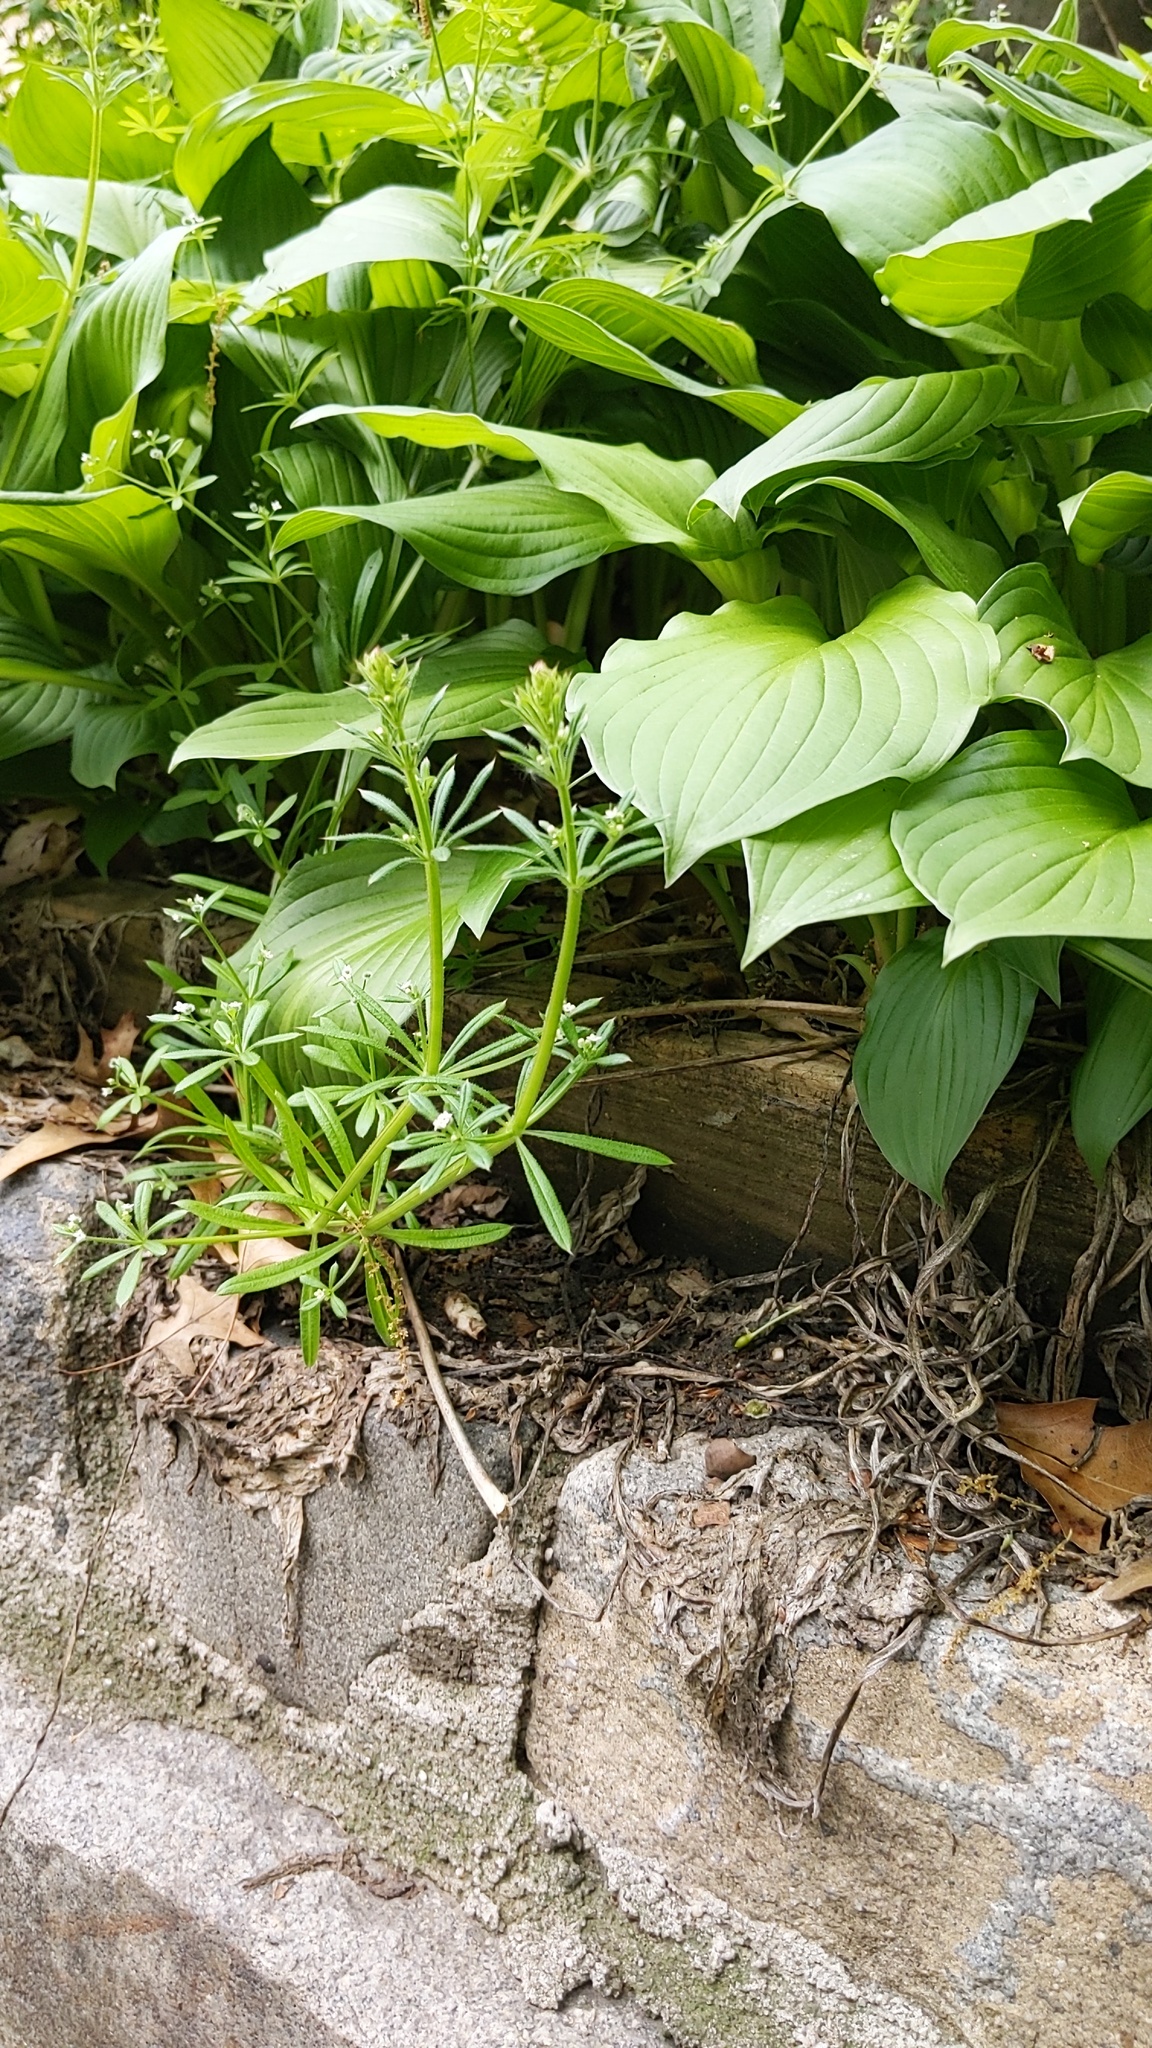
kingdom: Plantae
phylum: Tracheophyta
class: Magnoliopsida
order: Gentianales
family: Rubiaceae
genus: Galium
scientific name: Galium aparine
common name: Cleavers
